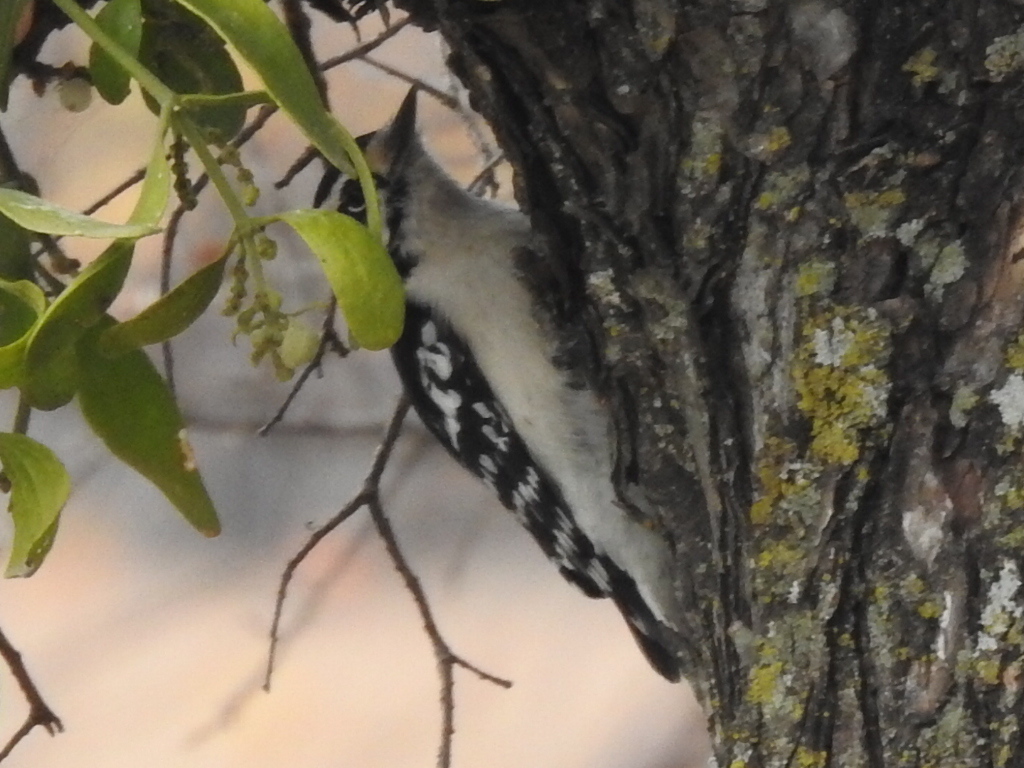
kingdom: Animalia
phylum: Chordata
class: Aves
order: Piciformes
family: Picidae
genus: Dryobates
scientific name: Dryobates pubescens
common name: Downy woodpecker
